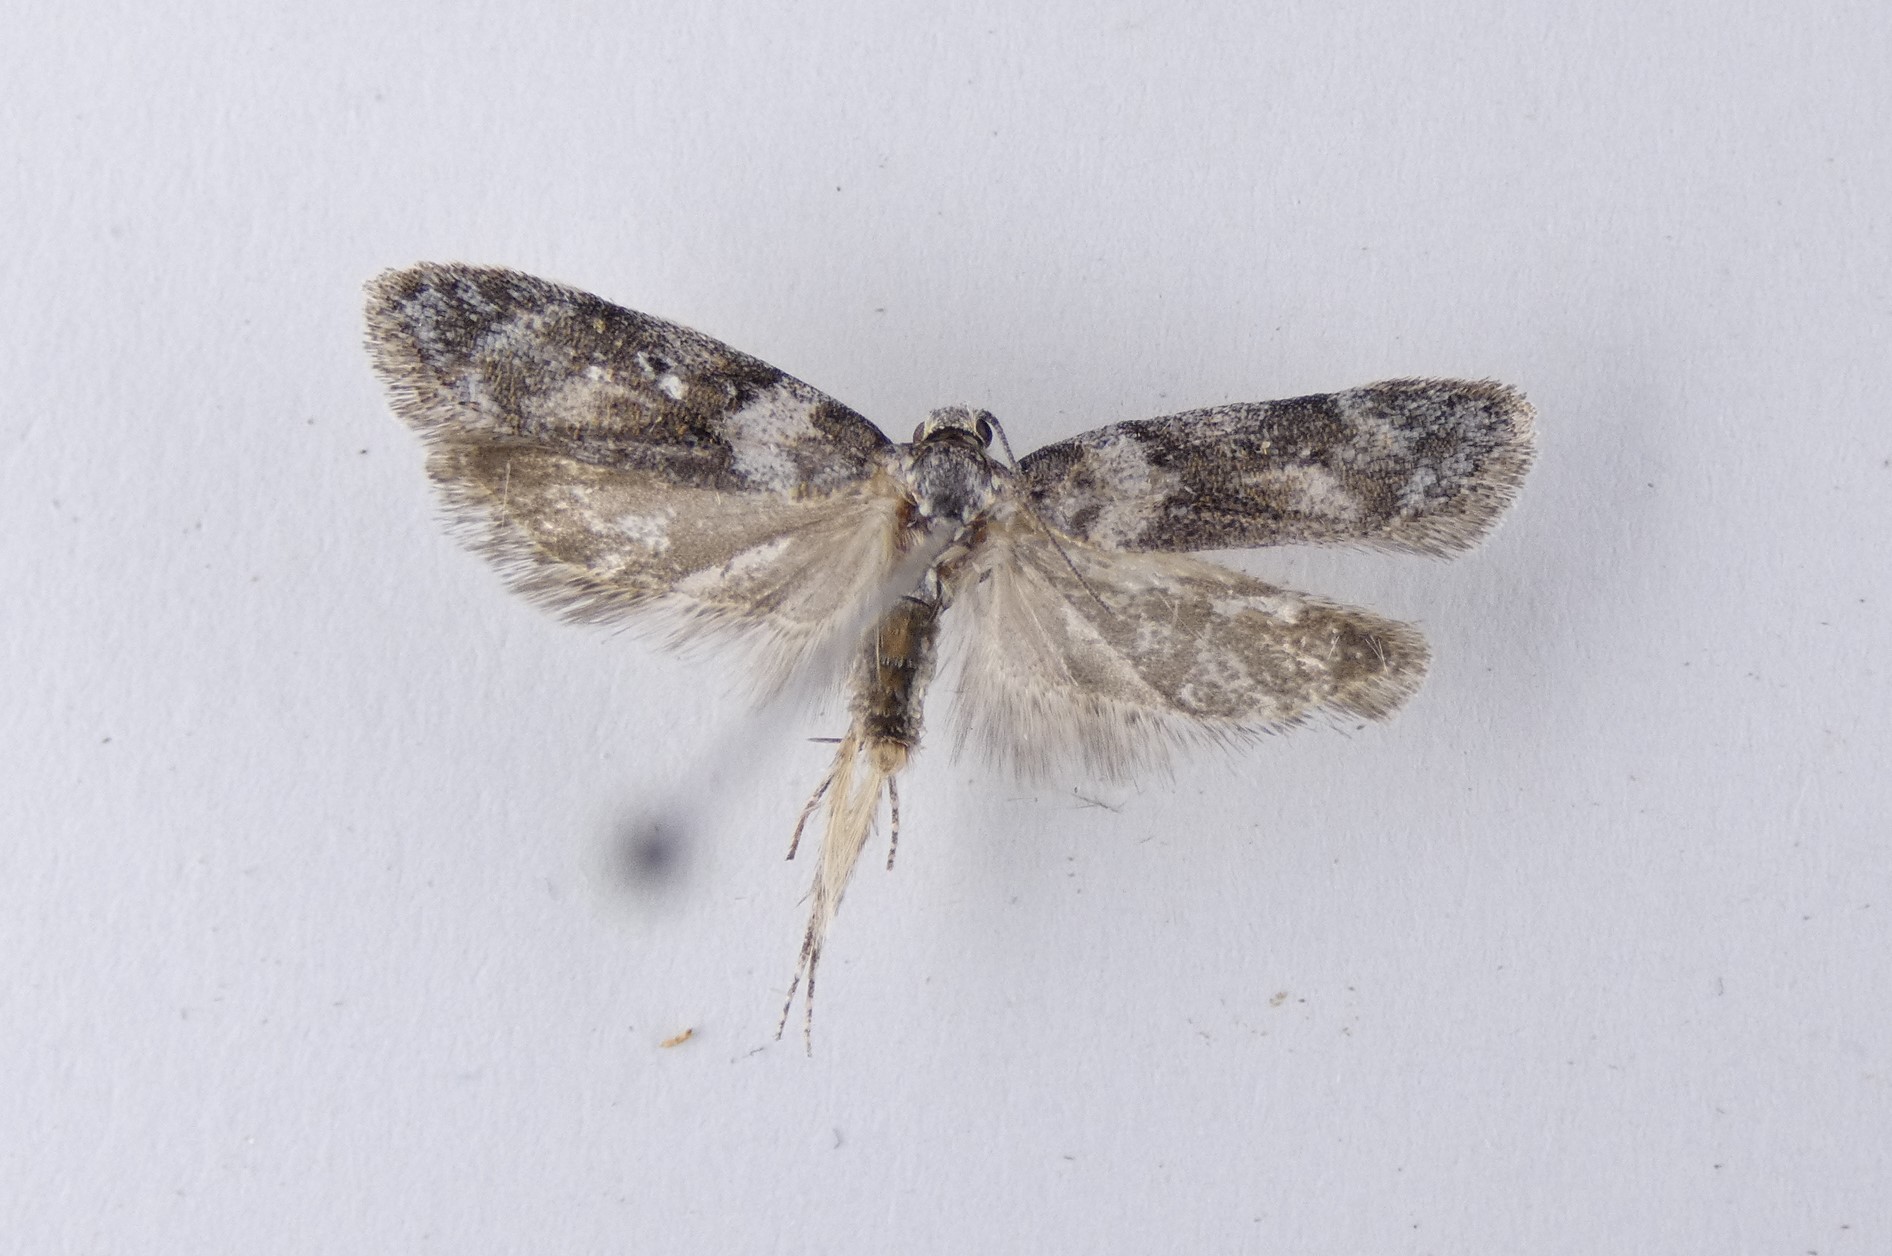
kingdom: Animalia
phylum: Arthropoda
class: Insecta
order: Lepidoptera
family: Oecophoridae
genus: Izatha
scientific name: Izatha convulsella
